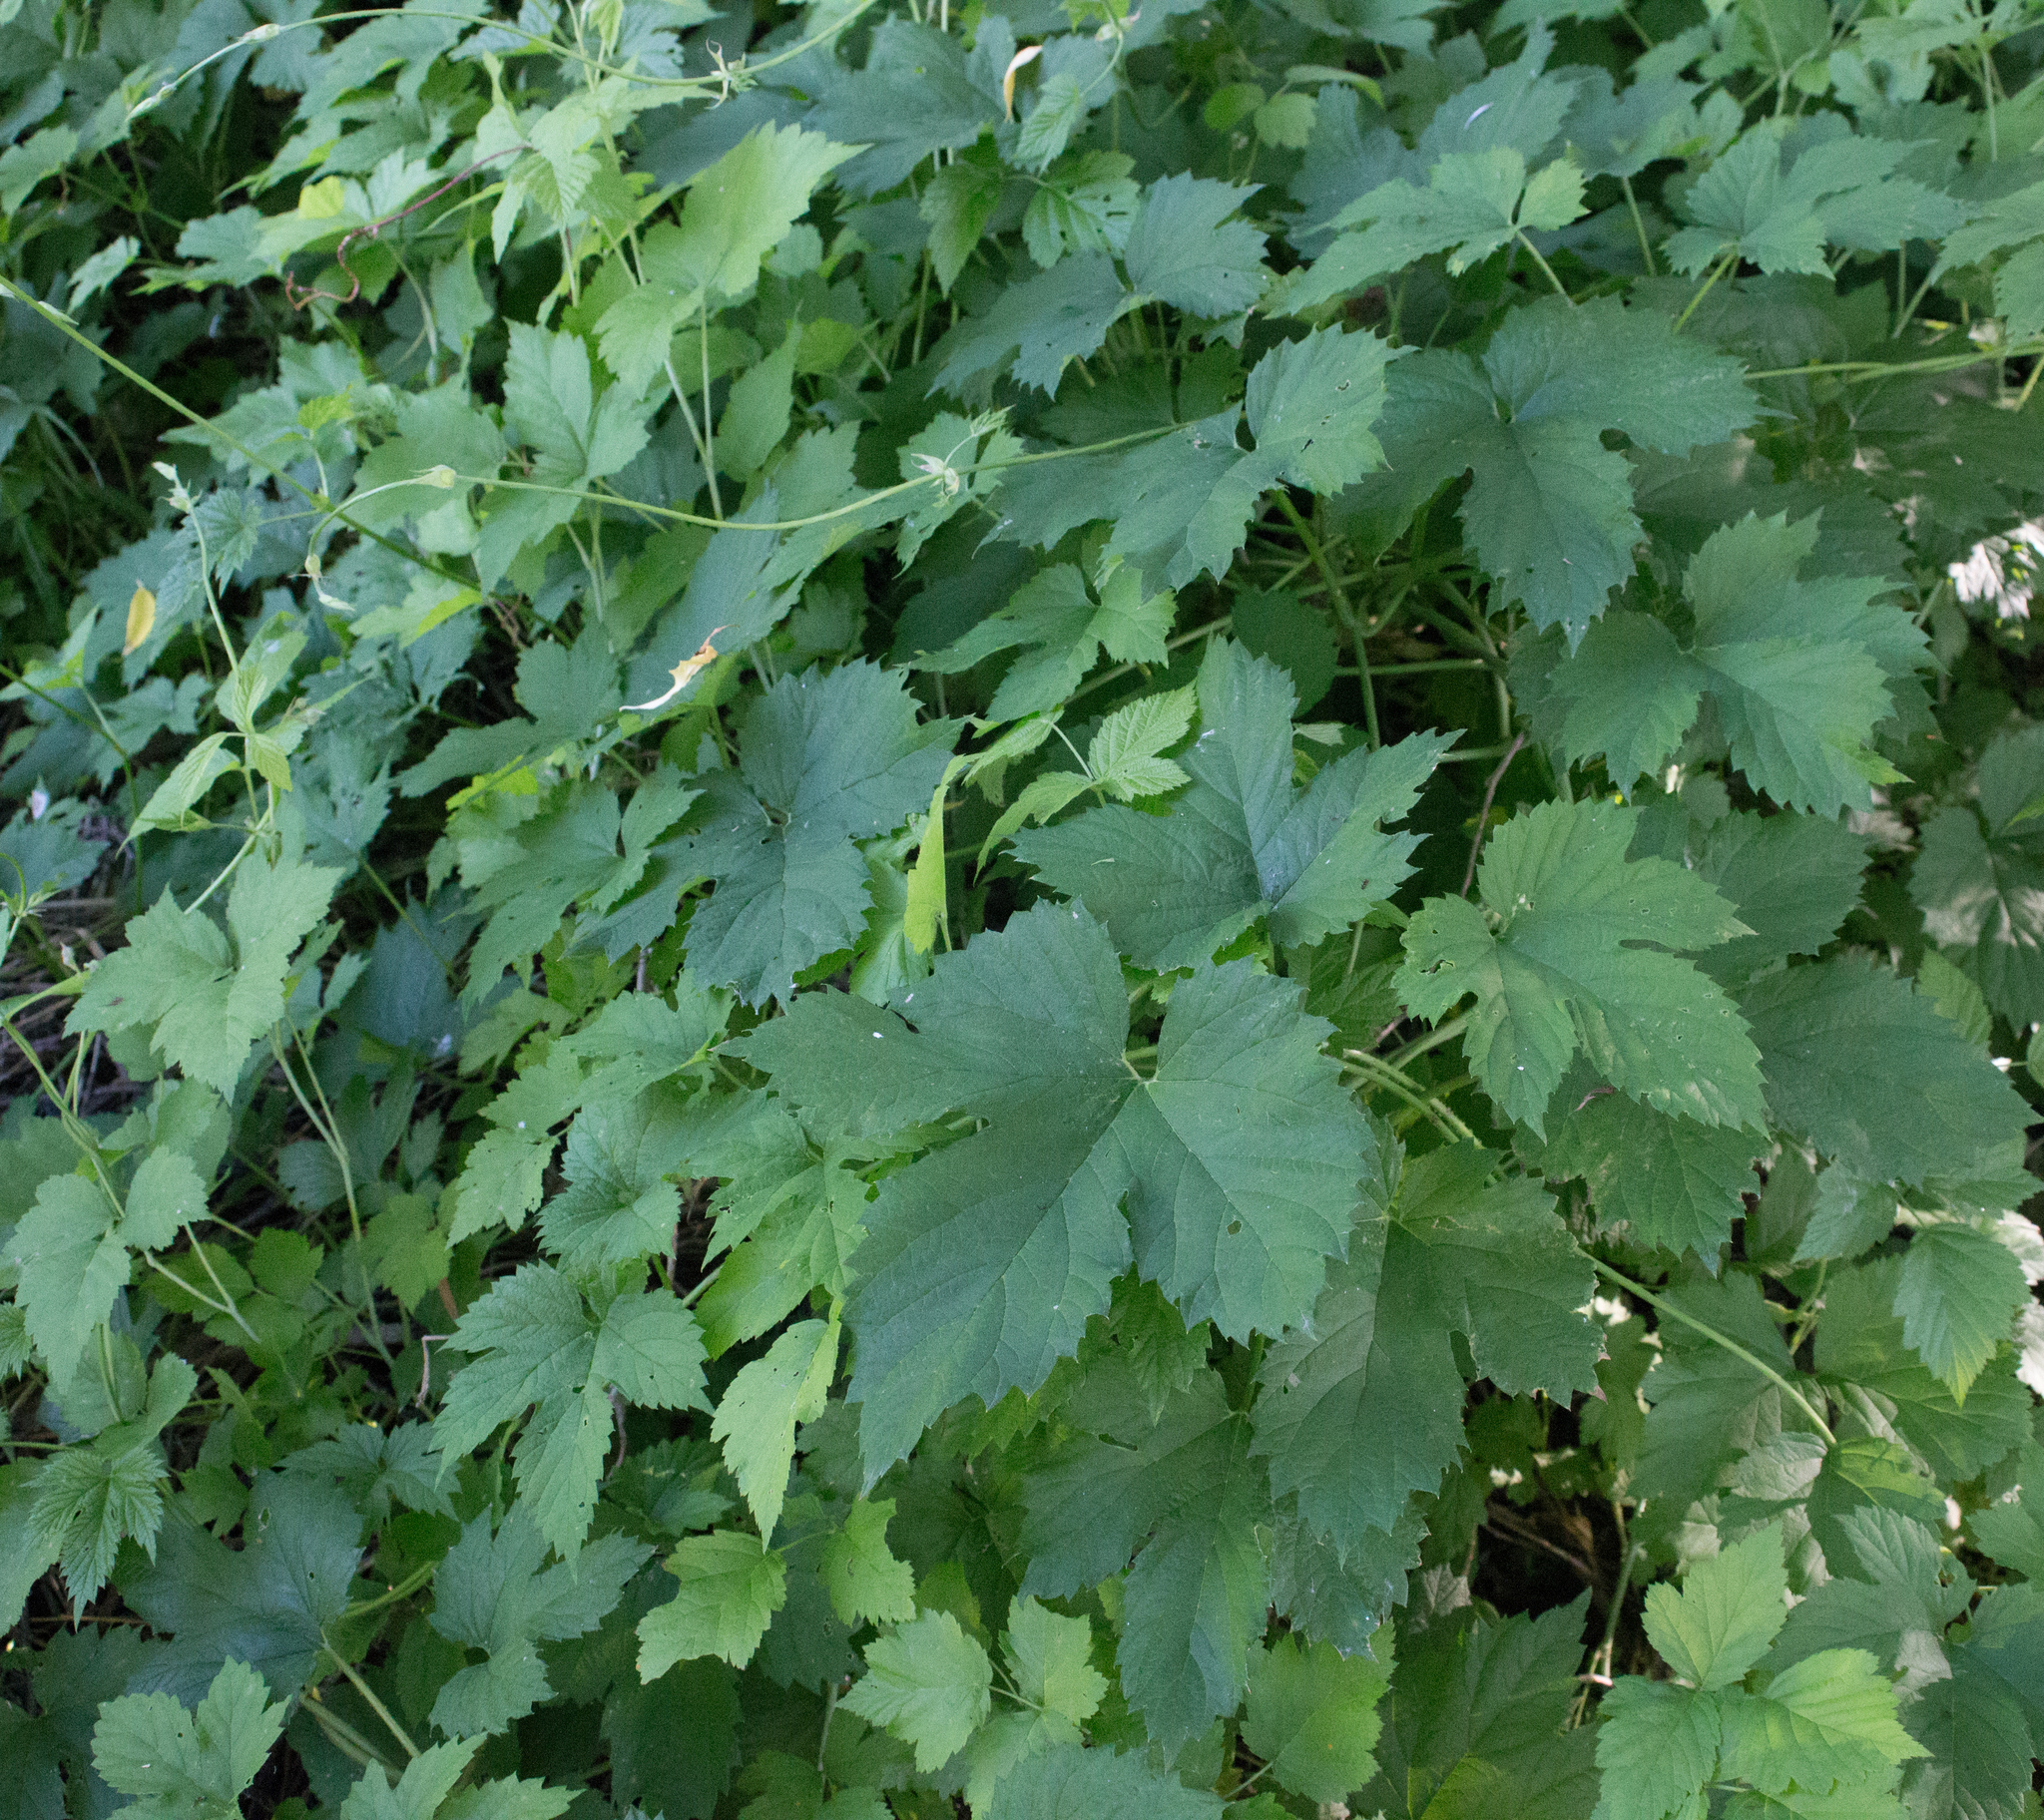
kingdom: Plantae
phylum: Tracheophyta
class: Magnoliopsida
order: Rosales
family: Cannabaceae
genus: Humulus
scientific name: Humulus lupulus
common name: Hop
